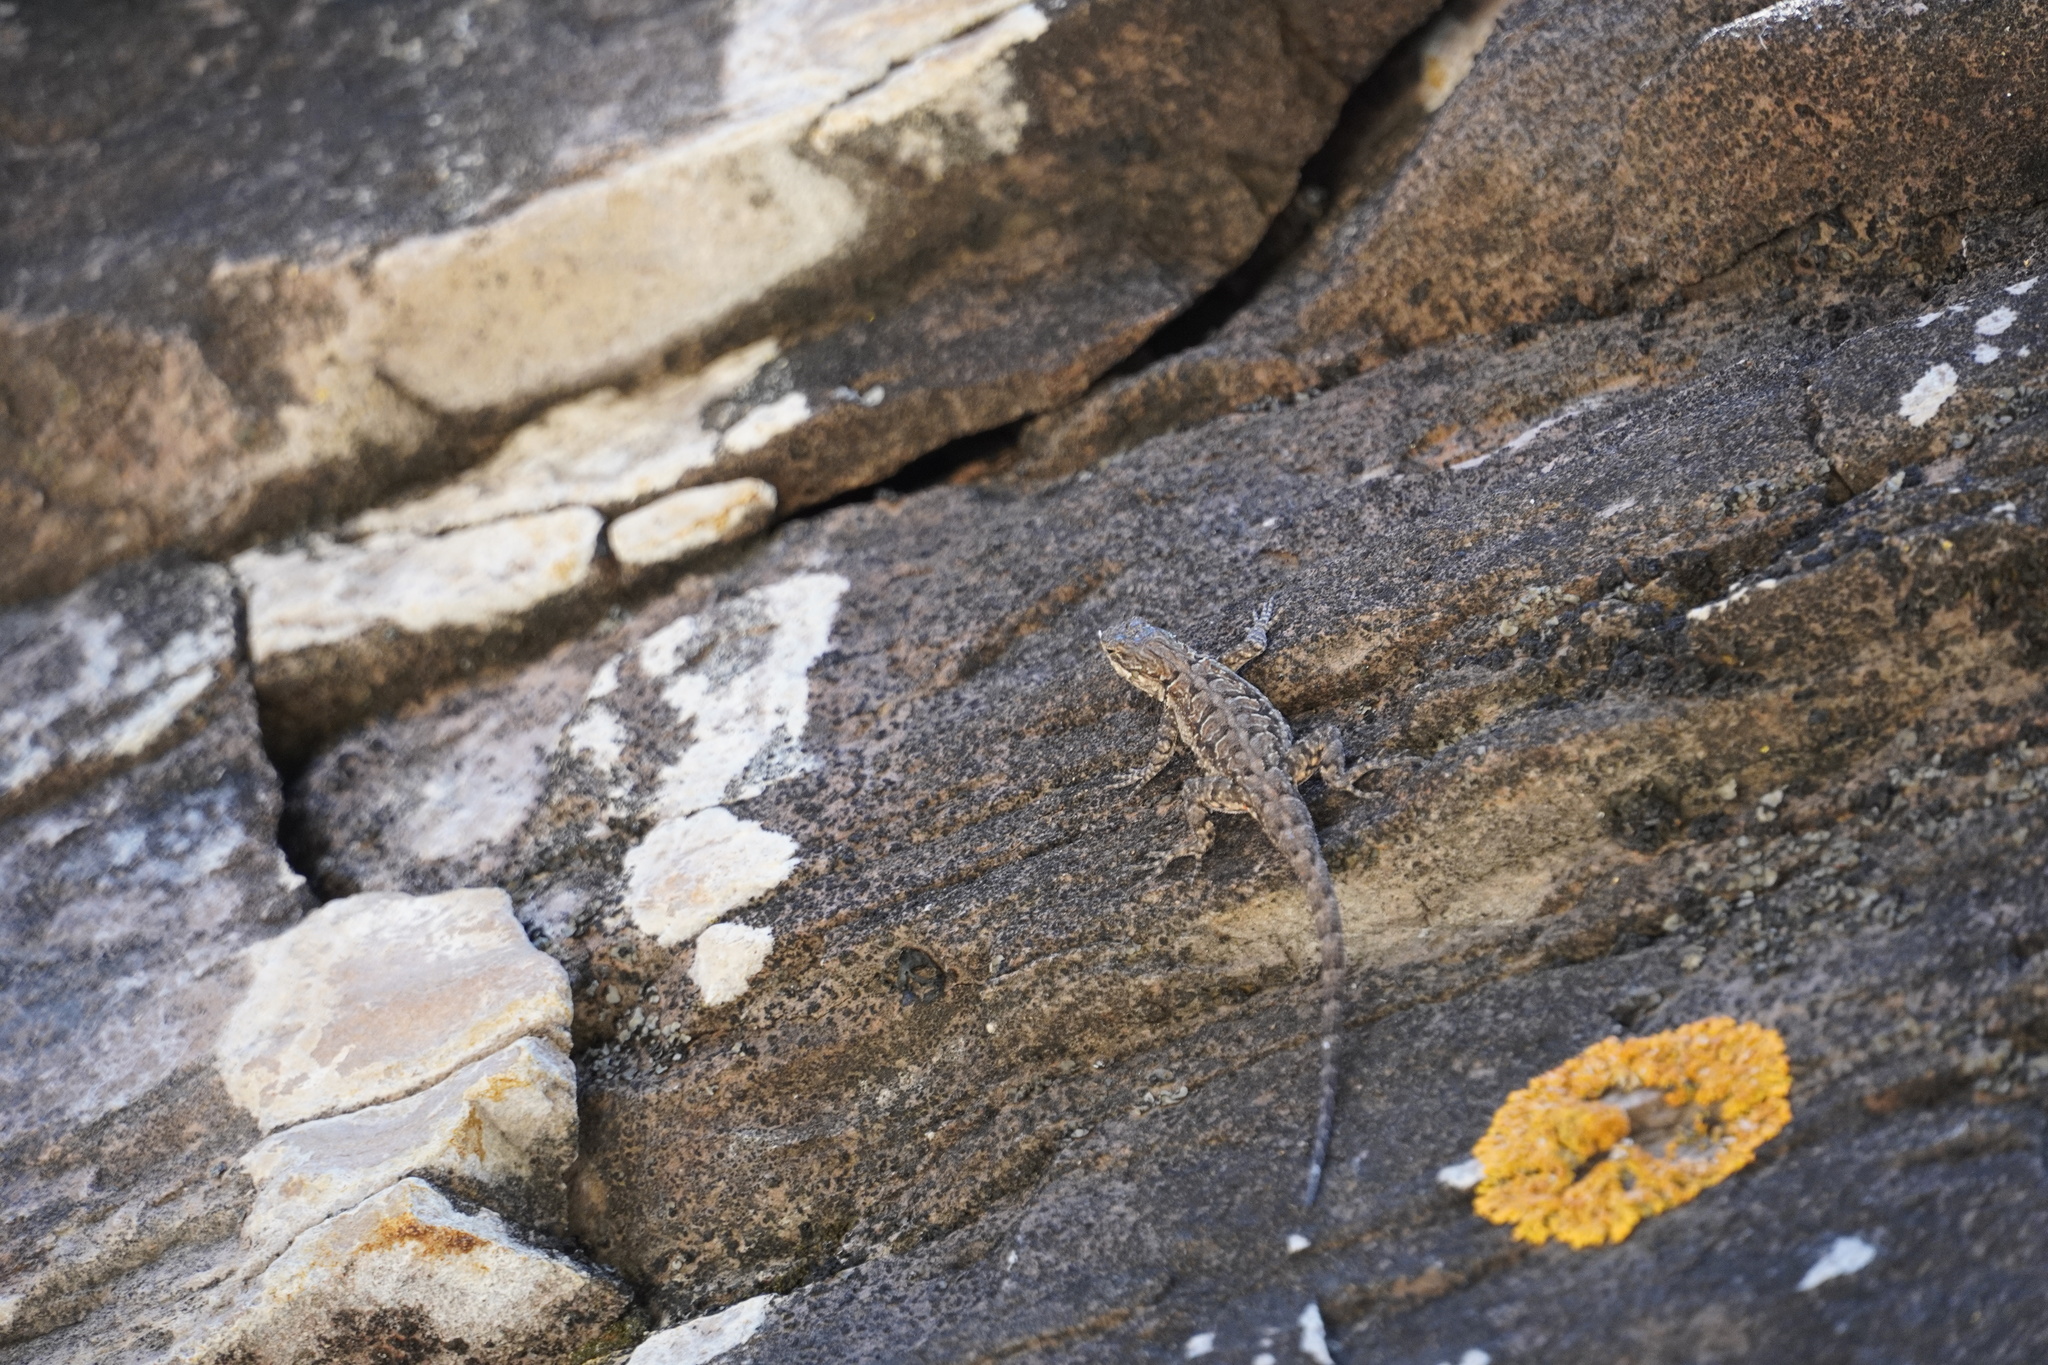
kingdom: Animalia
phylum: Chordata
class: Squamata
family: Phrynosomatidae
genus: Urosaurus
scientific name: Urosaurus ornatus
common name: Ornate tree lizard
